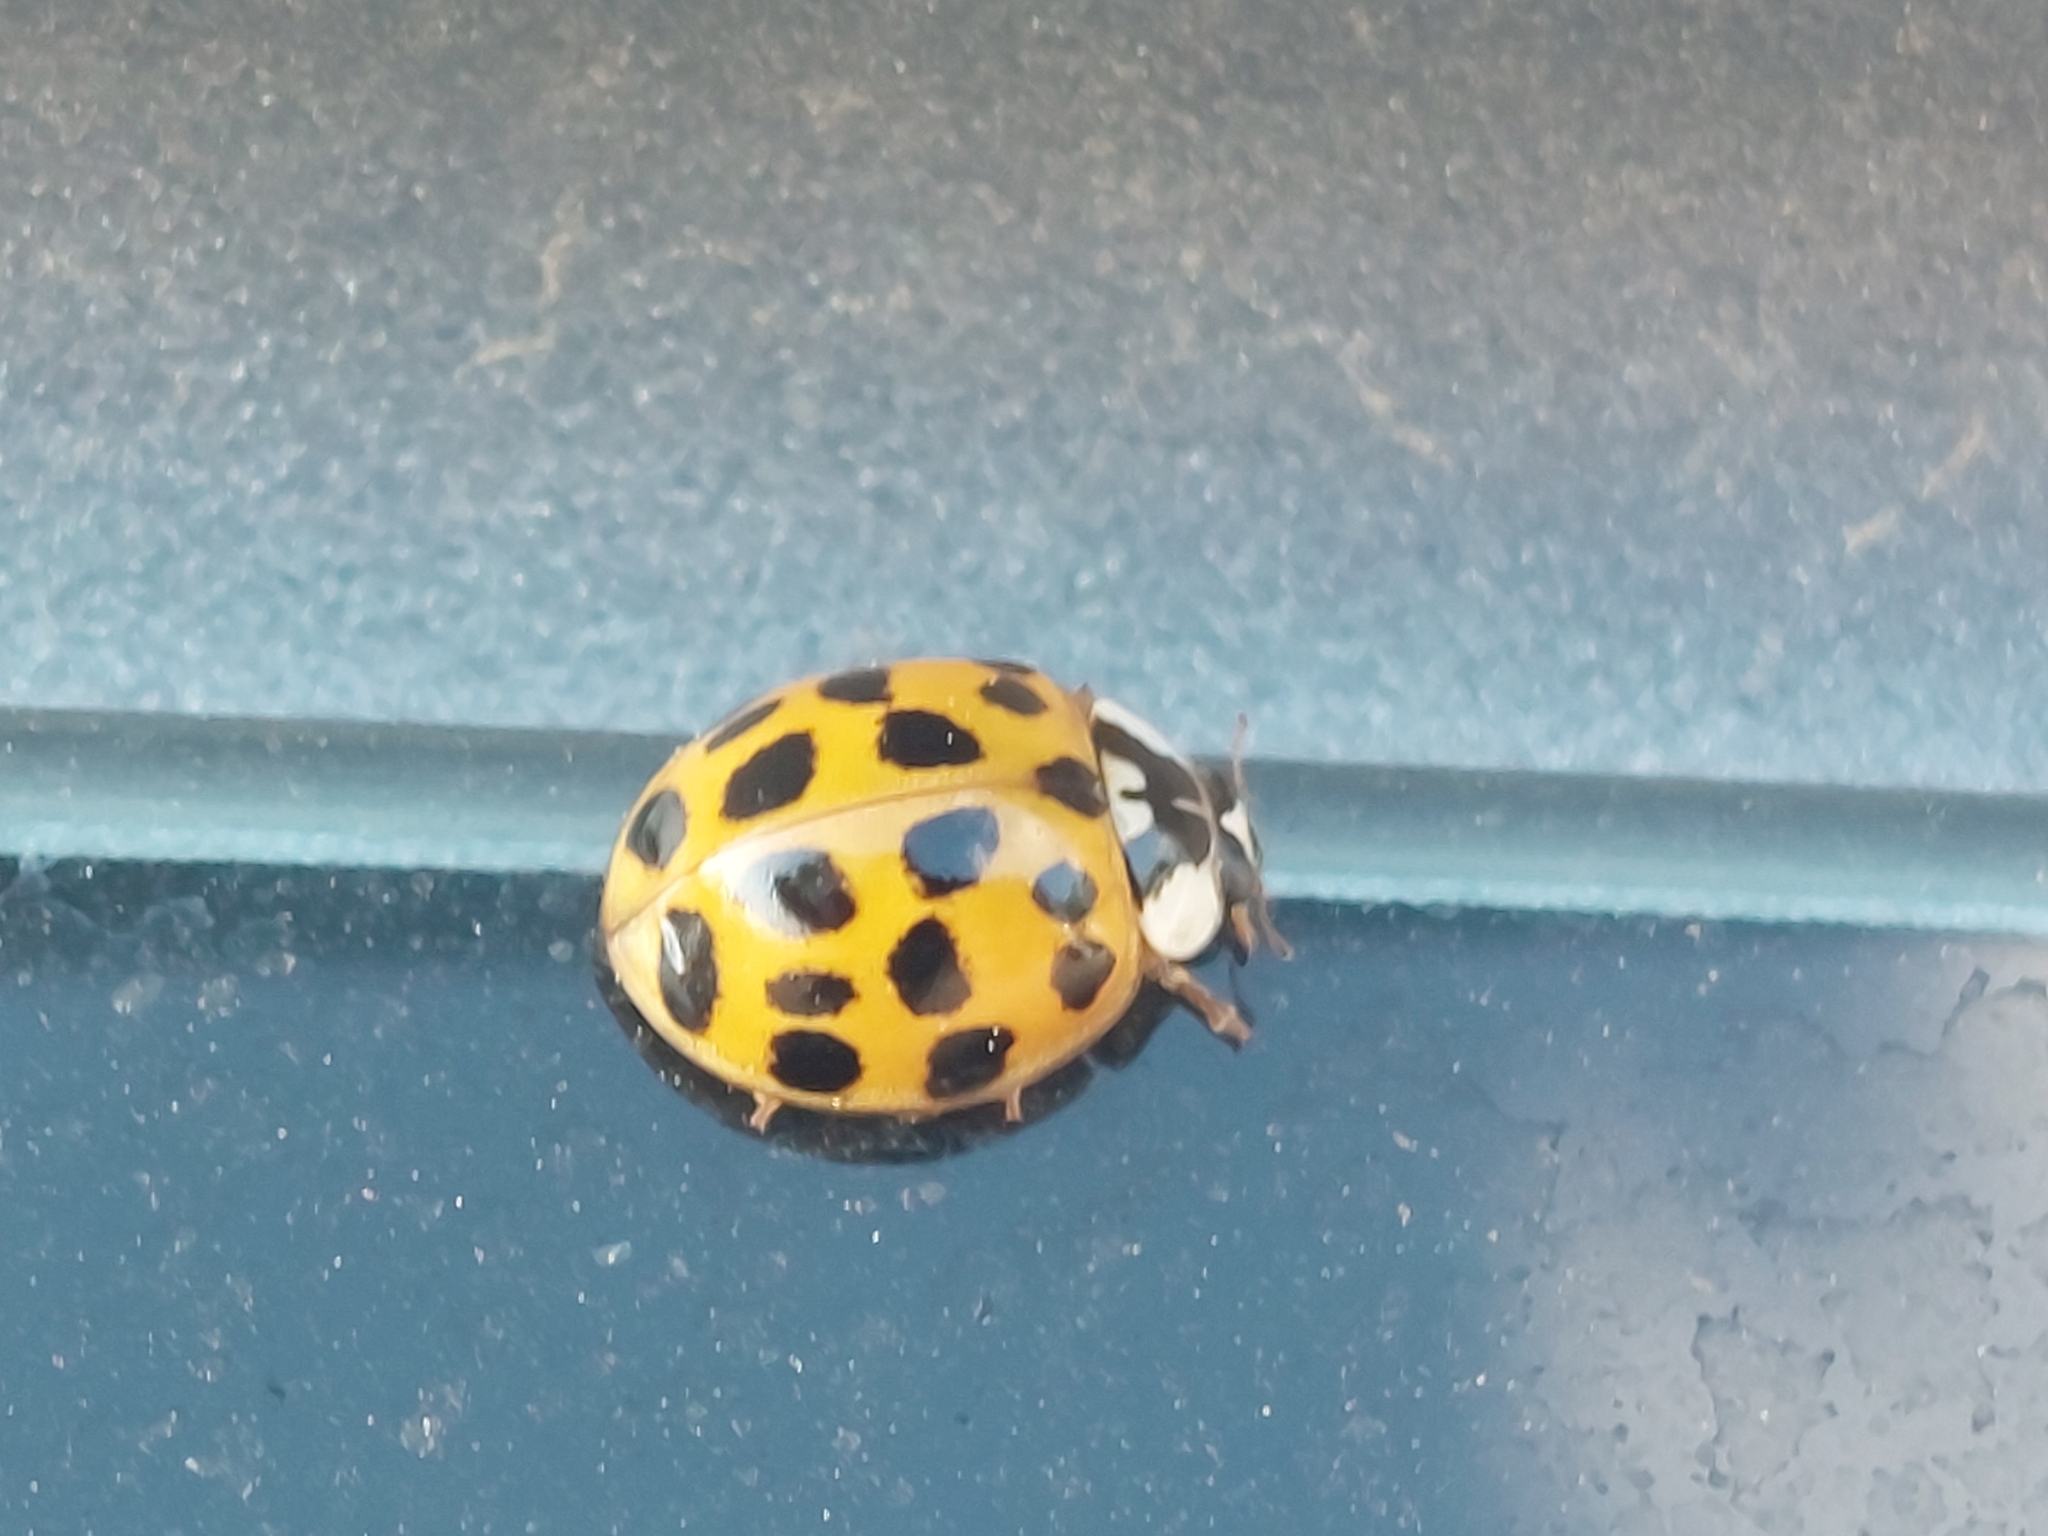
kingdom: Animalia
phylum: Arthropoda
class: Insecta
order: Coleoptera
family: Coccinellidae
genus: Harmonia
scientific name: Harmonia axyridis
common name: Harlequin ladybird
